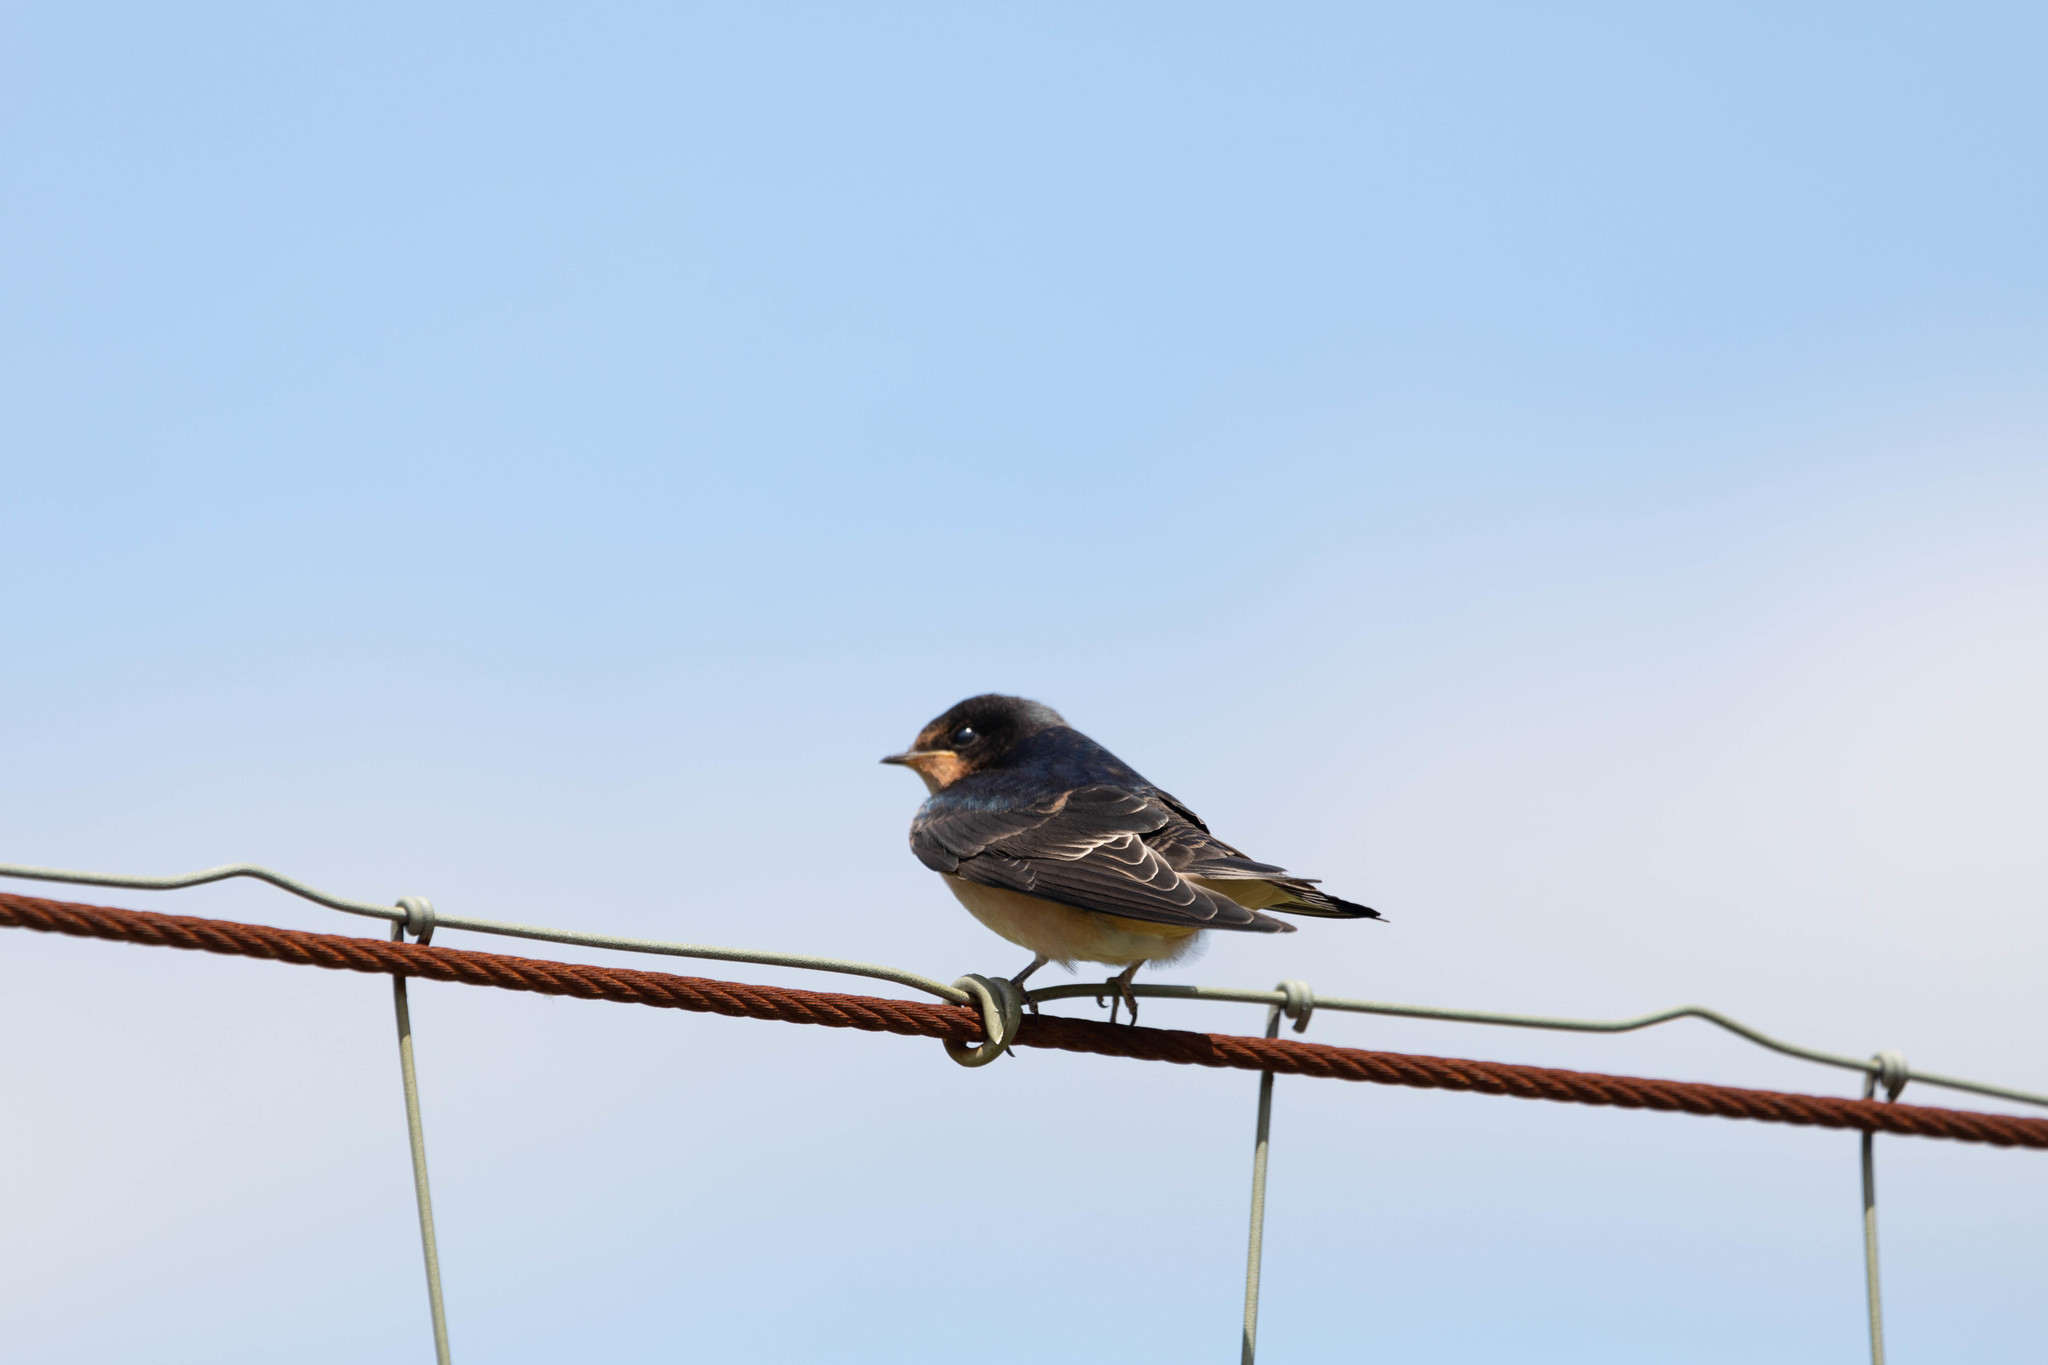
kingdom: Animalia
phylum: Chordata
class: Aves
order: Passeriformes
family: Hirundinidae
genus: Hirundo
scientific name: Hirundo rustica
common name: Barn swallow
